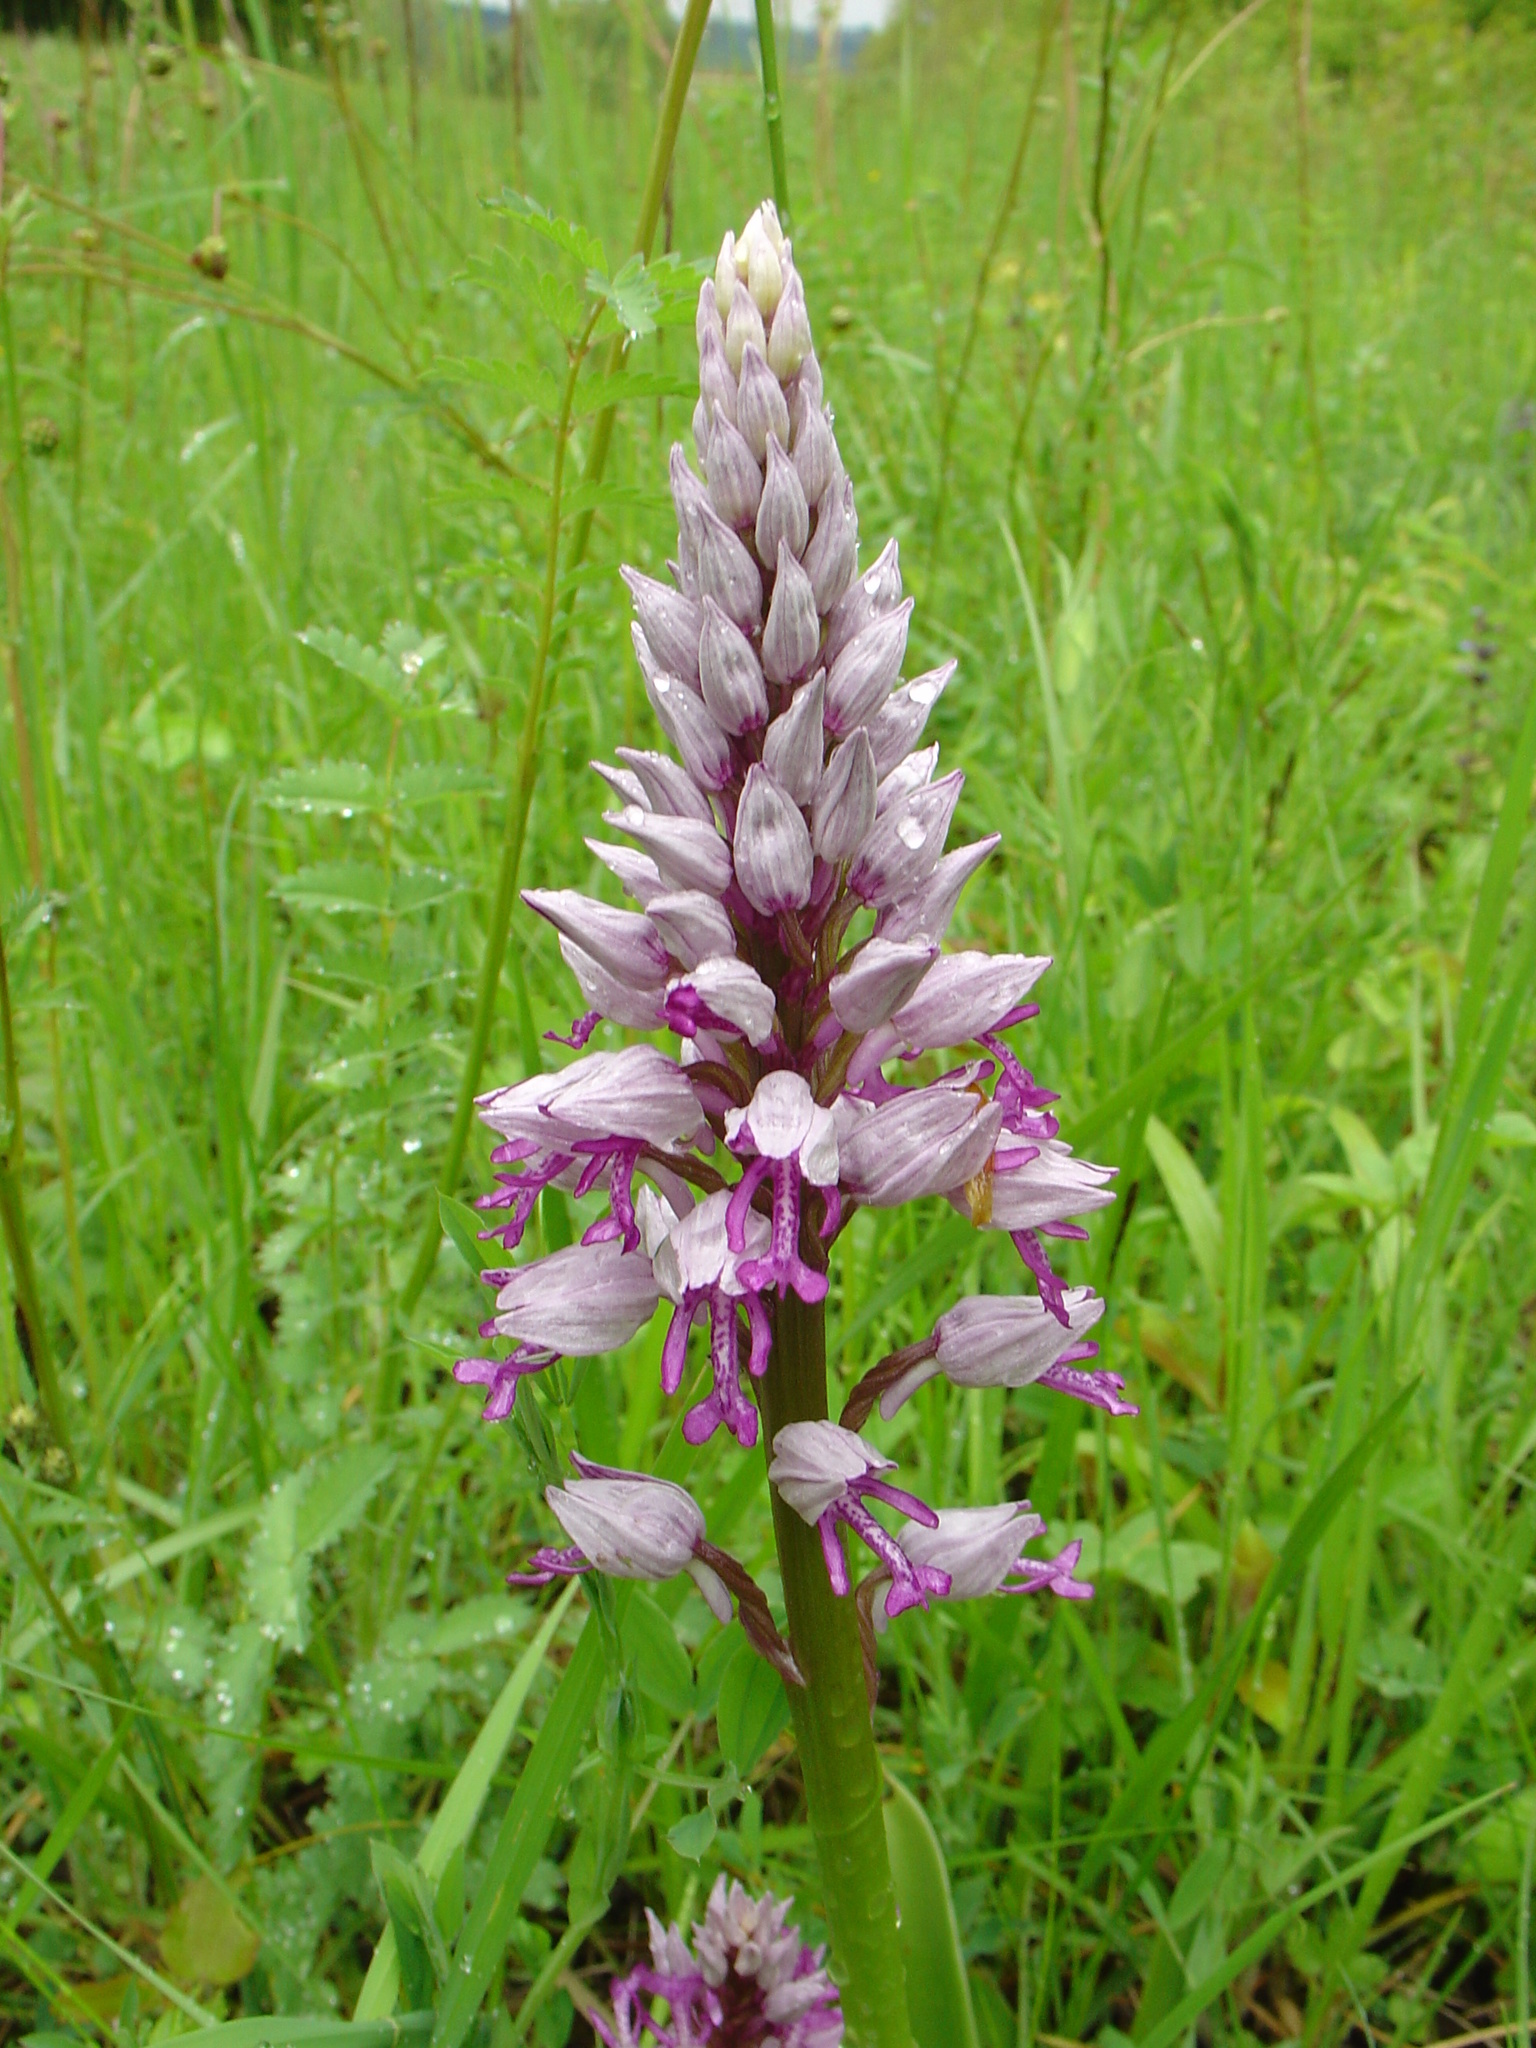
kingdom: Plantae
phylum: Tracheophyta
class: Liliopsida
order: Asparagales
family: Orchidaceae
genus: Orchis
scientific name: Orchis militaris
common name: Military orchid
